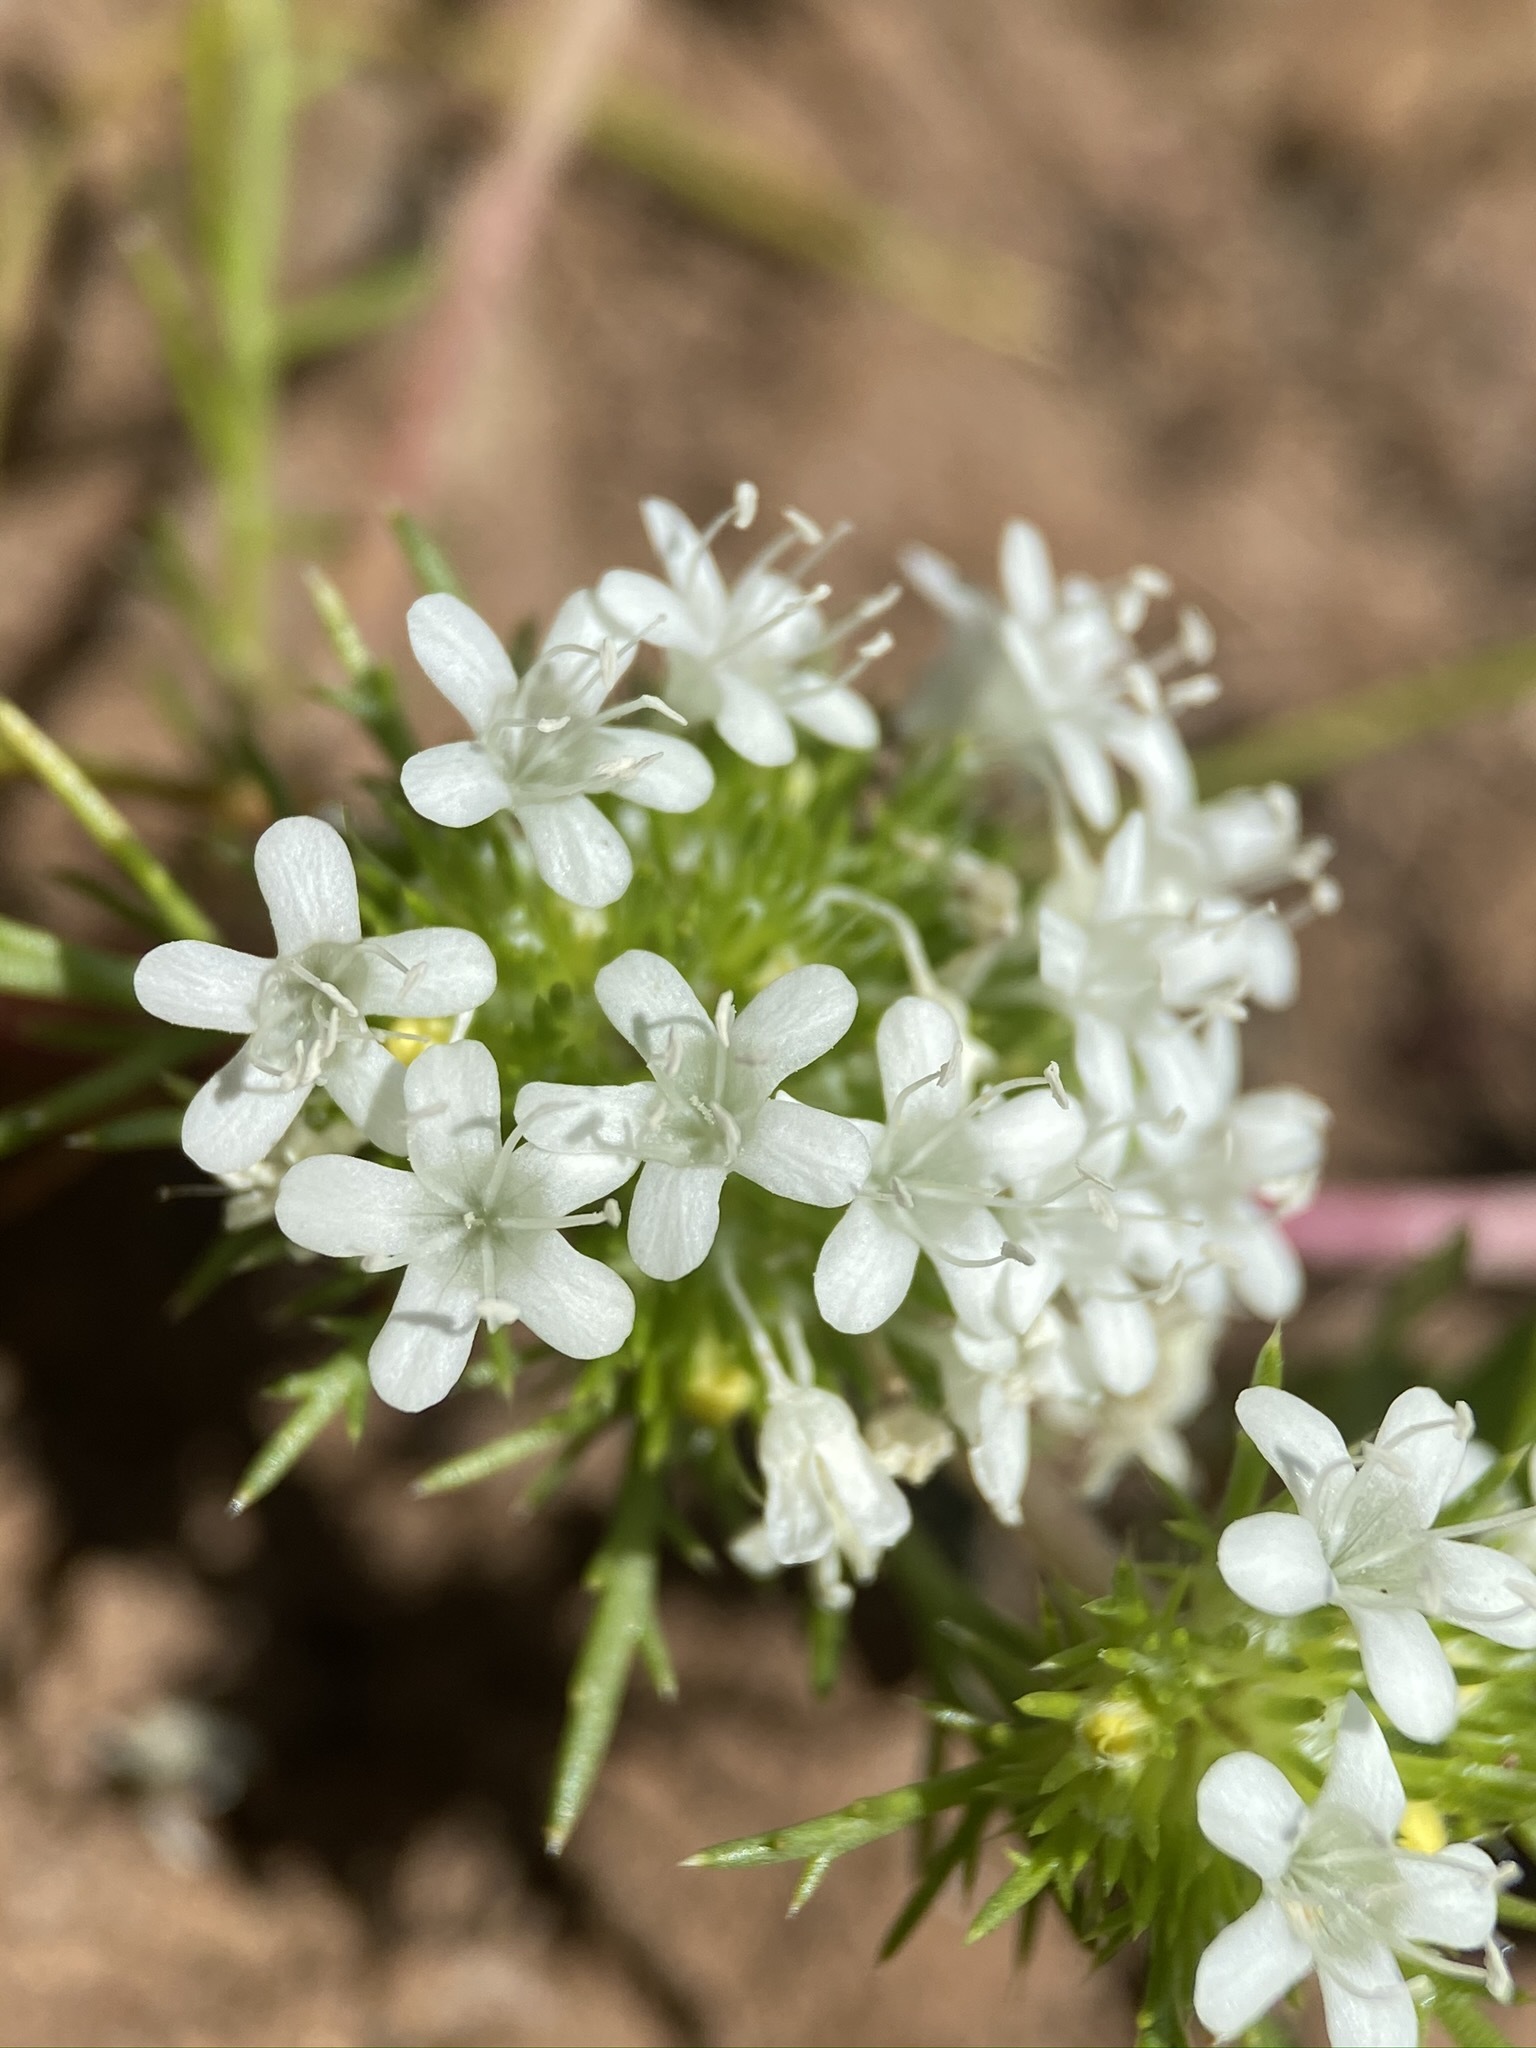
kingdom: Plantae
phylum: Tracheophyta
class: Magnoliopsida
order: Ericales
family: Polemoniaceae
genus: Navarretia
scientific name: Navarretia leucocephala
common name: White-flowered navarretia
